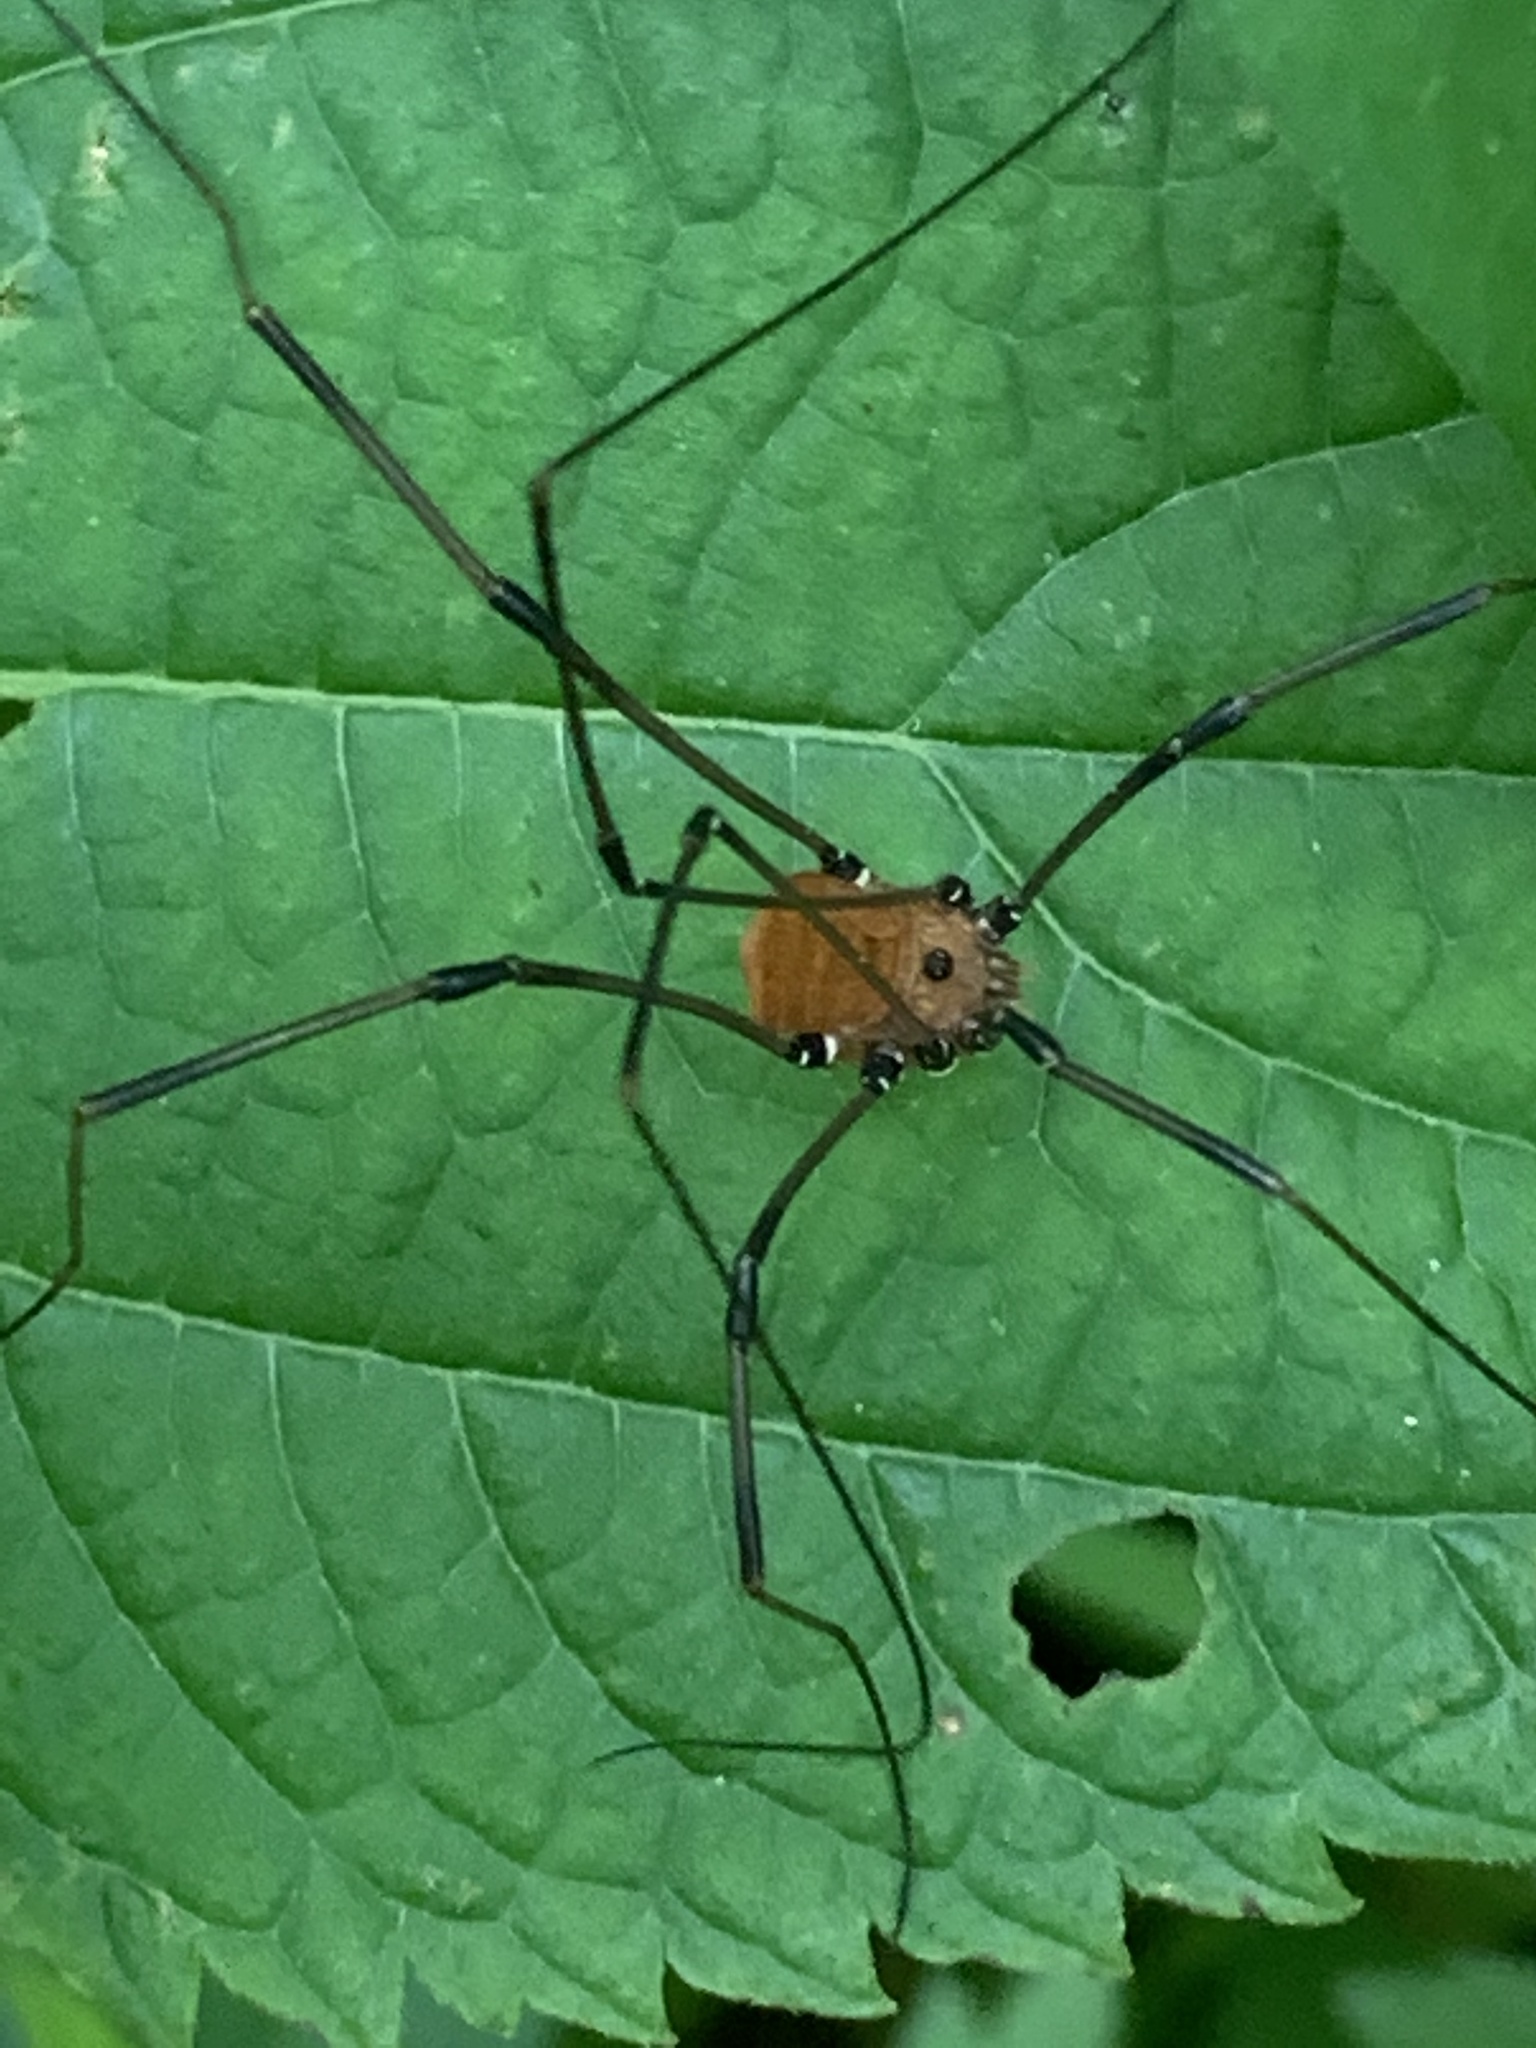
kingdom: Animalia
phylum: Arthropoda
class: Arachnida
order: Opiliones
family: Sclerosomatidae
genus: Leiobunum
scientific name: Leiobunum verrucosum
